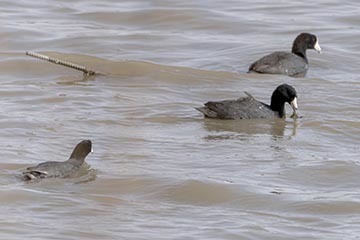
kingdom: Animalia
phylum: Chordata
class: Aves
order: Gruiformes
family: Rallidae
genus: Fulica
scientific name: Fulica americana
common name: American coot
